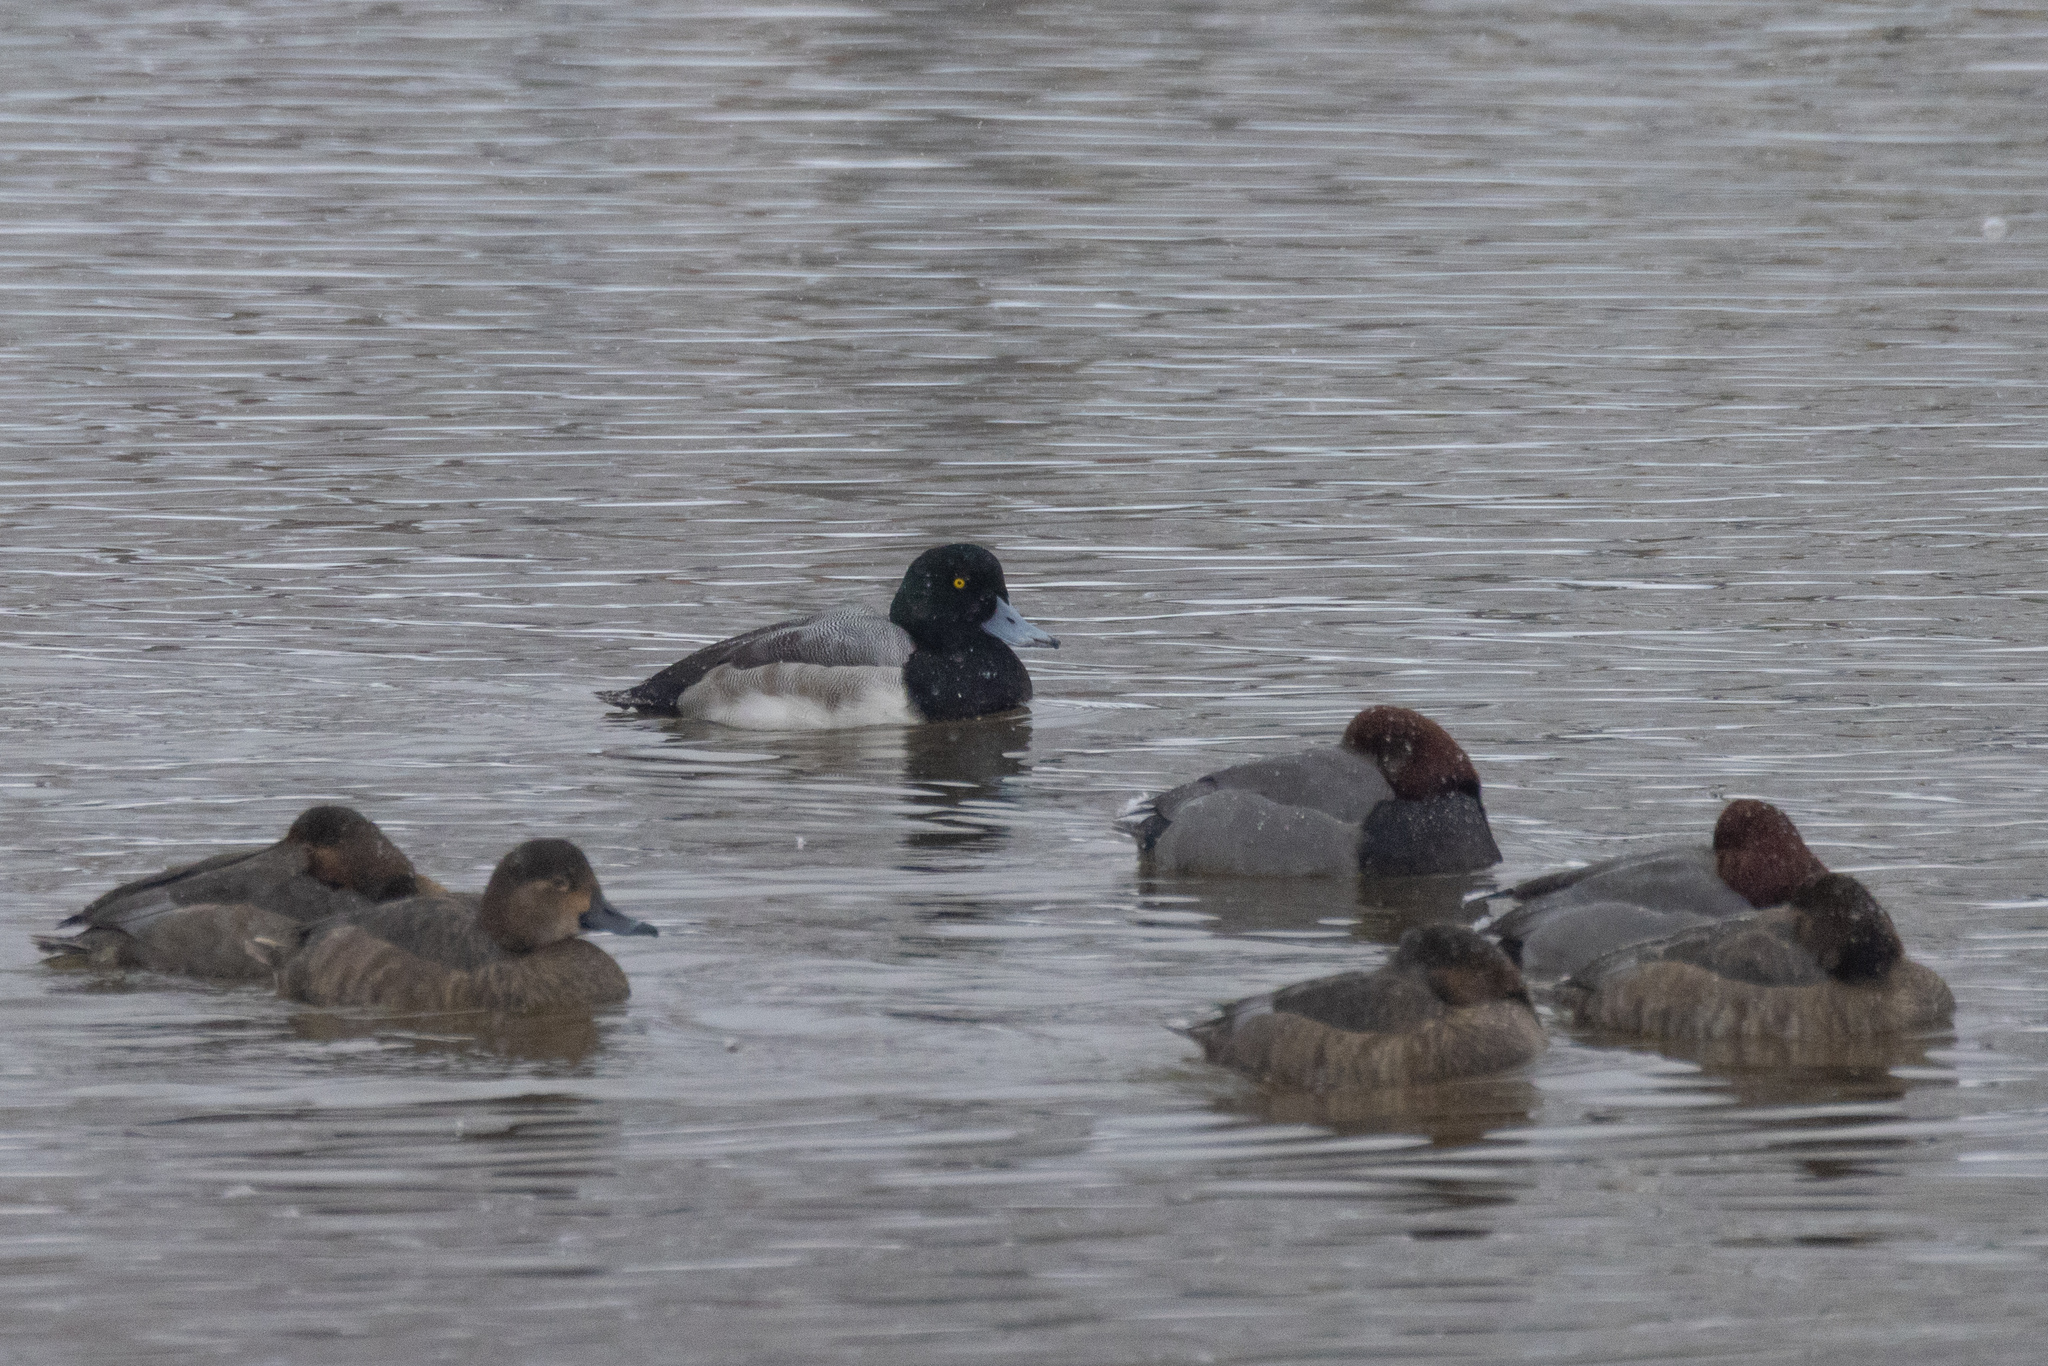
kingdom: Animalia
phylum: Chordata
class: Aves
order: Anseriformes
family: Anatidae
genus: Aythya
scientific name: Aythya americana
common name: Redhead
